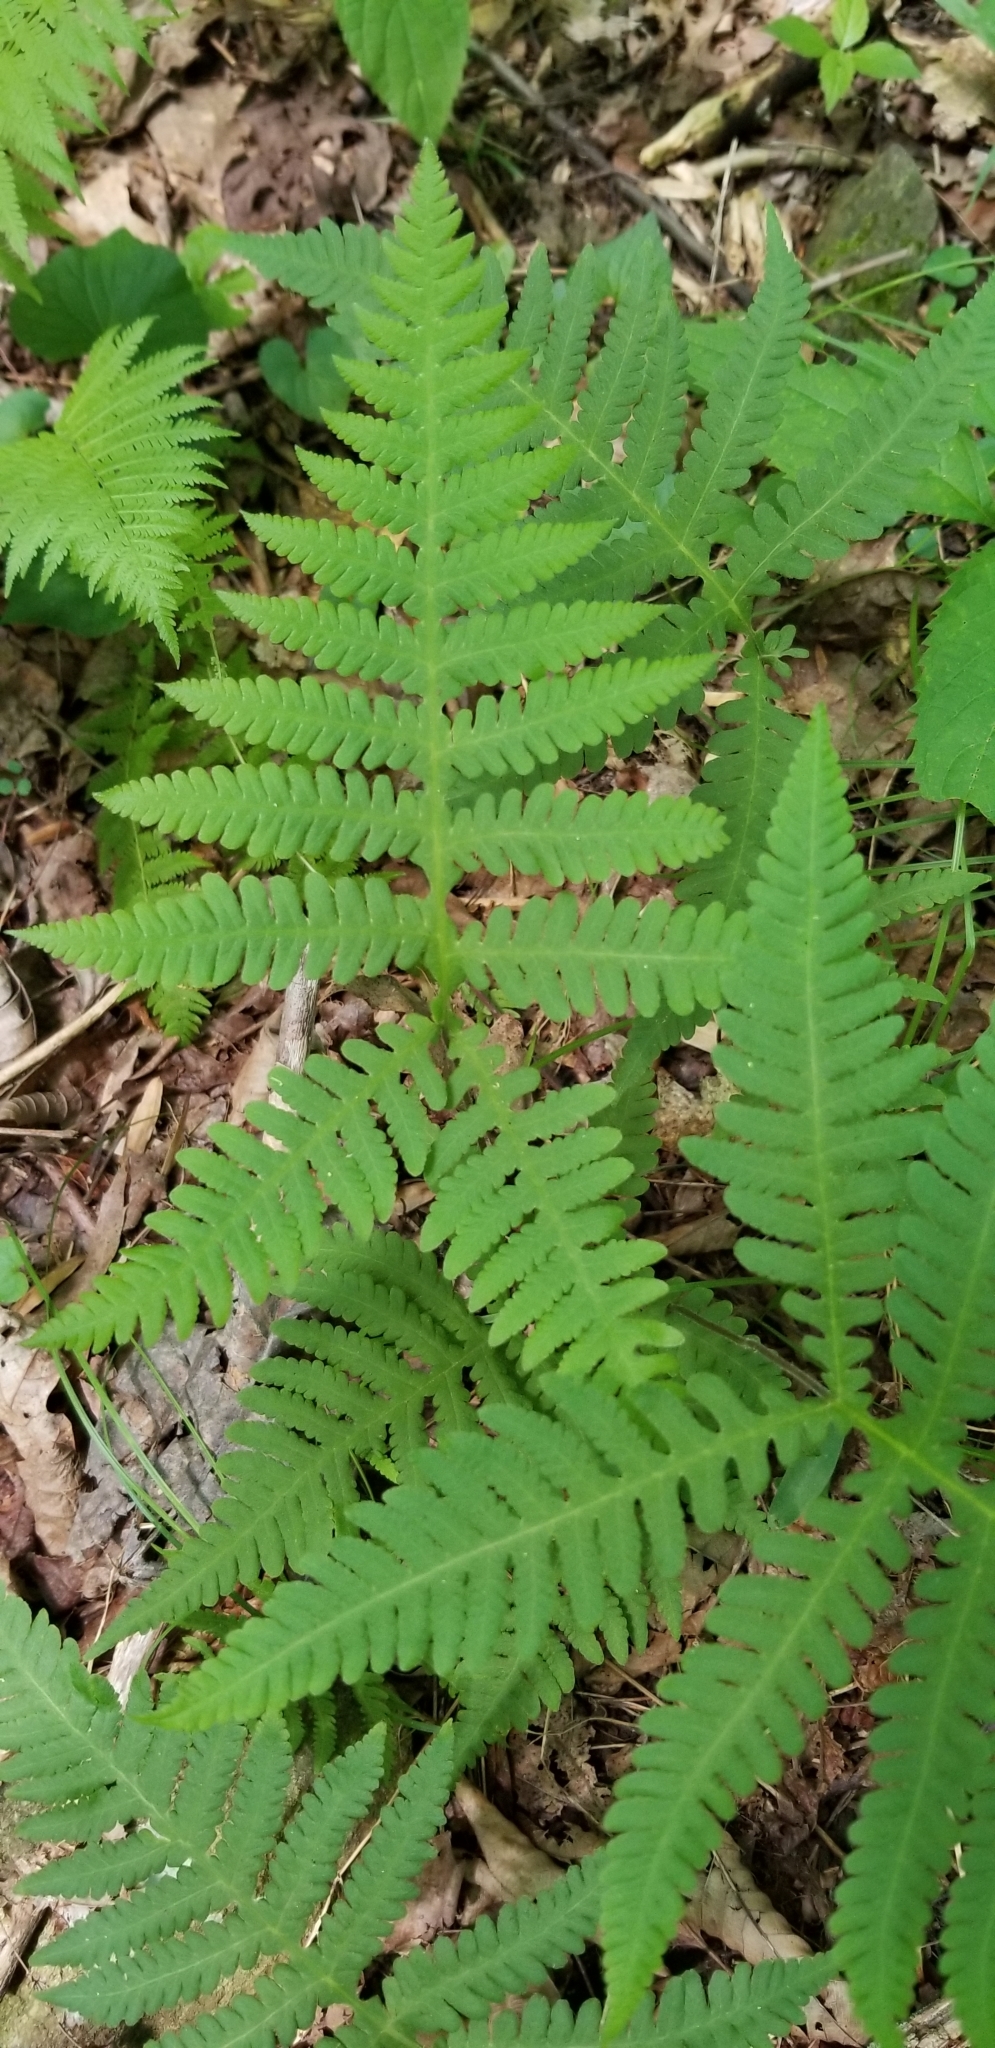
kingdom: Plantae
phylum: Tracheophyta
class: Polypodiopsida
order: Polypodiales
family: Thelypteridaceae
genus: Phegopteris
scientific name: Phegopteris hexagonoptera
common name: Broad beech fern
